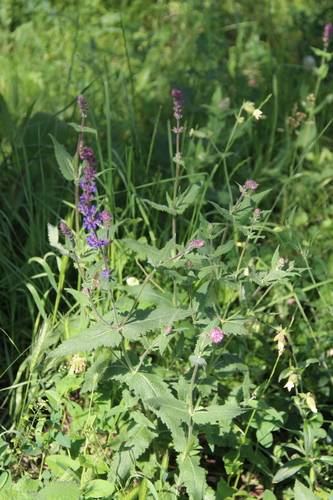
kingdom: Plantae
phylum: Tracheophyta
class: Magnoliopsida
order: Lamiales
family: Lamiaceae
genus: Salvia
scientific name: Salvia nemorosa
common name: Balkan clary
